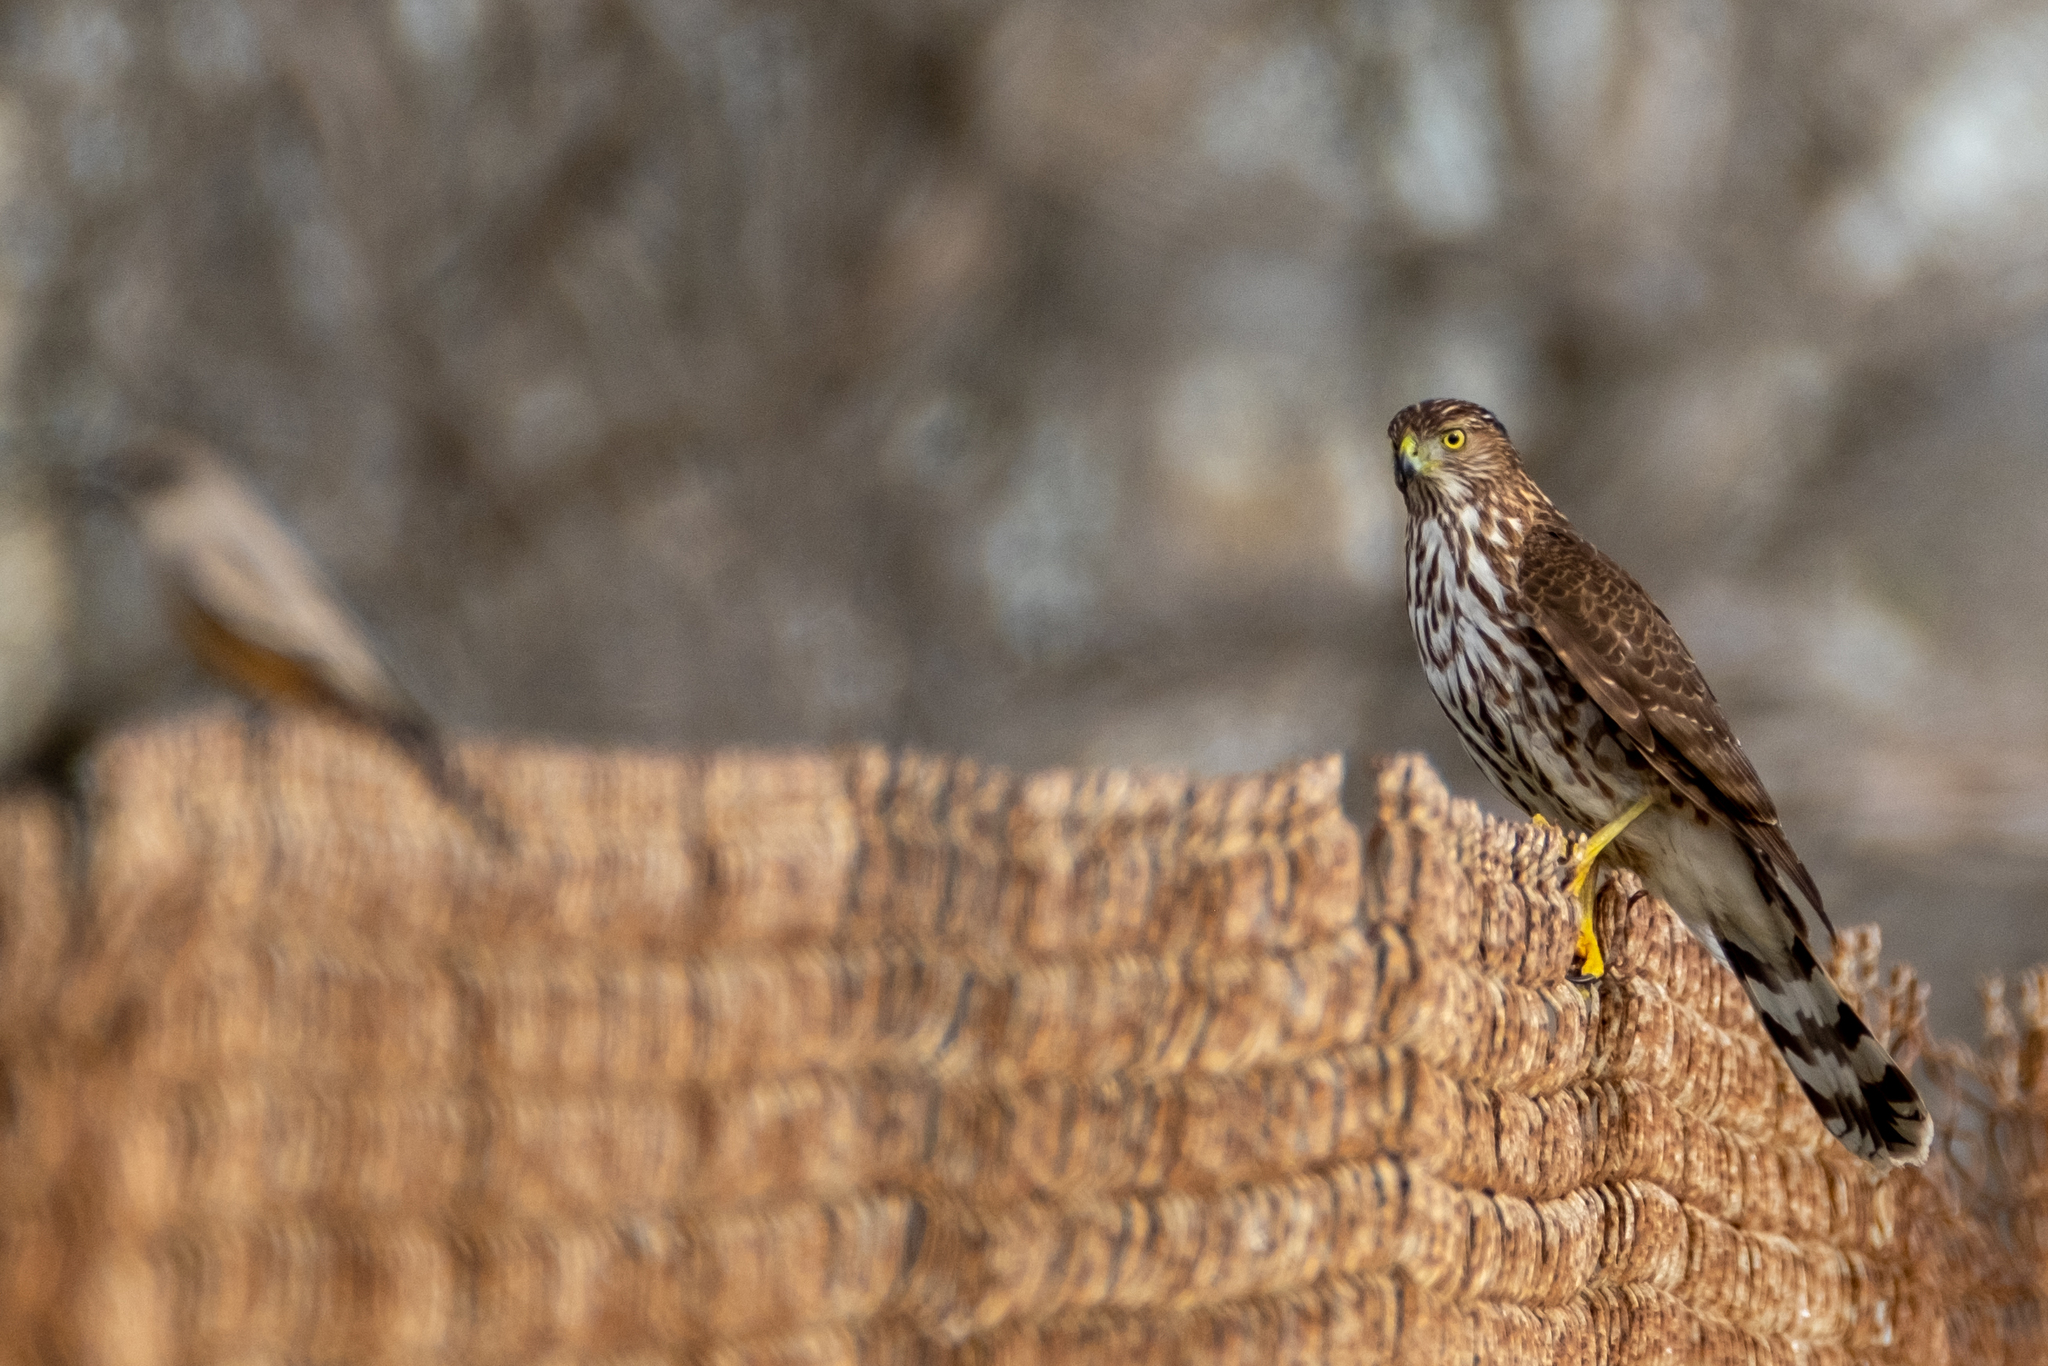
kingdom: Animalia
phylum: Chordata
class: Aves
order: Accipitriformes
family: Accipitridae
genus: Accipiter
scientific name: Accipiter cooperii
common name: Cooper's hawk
